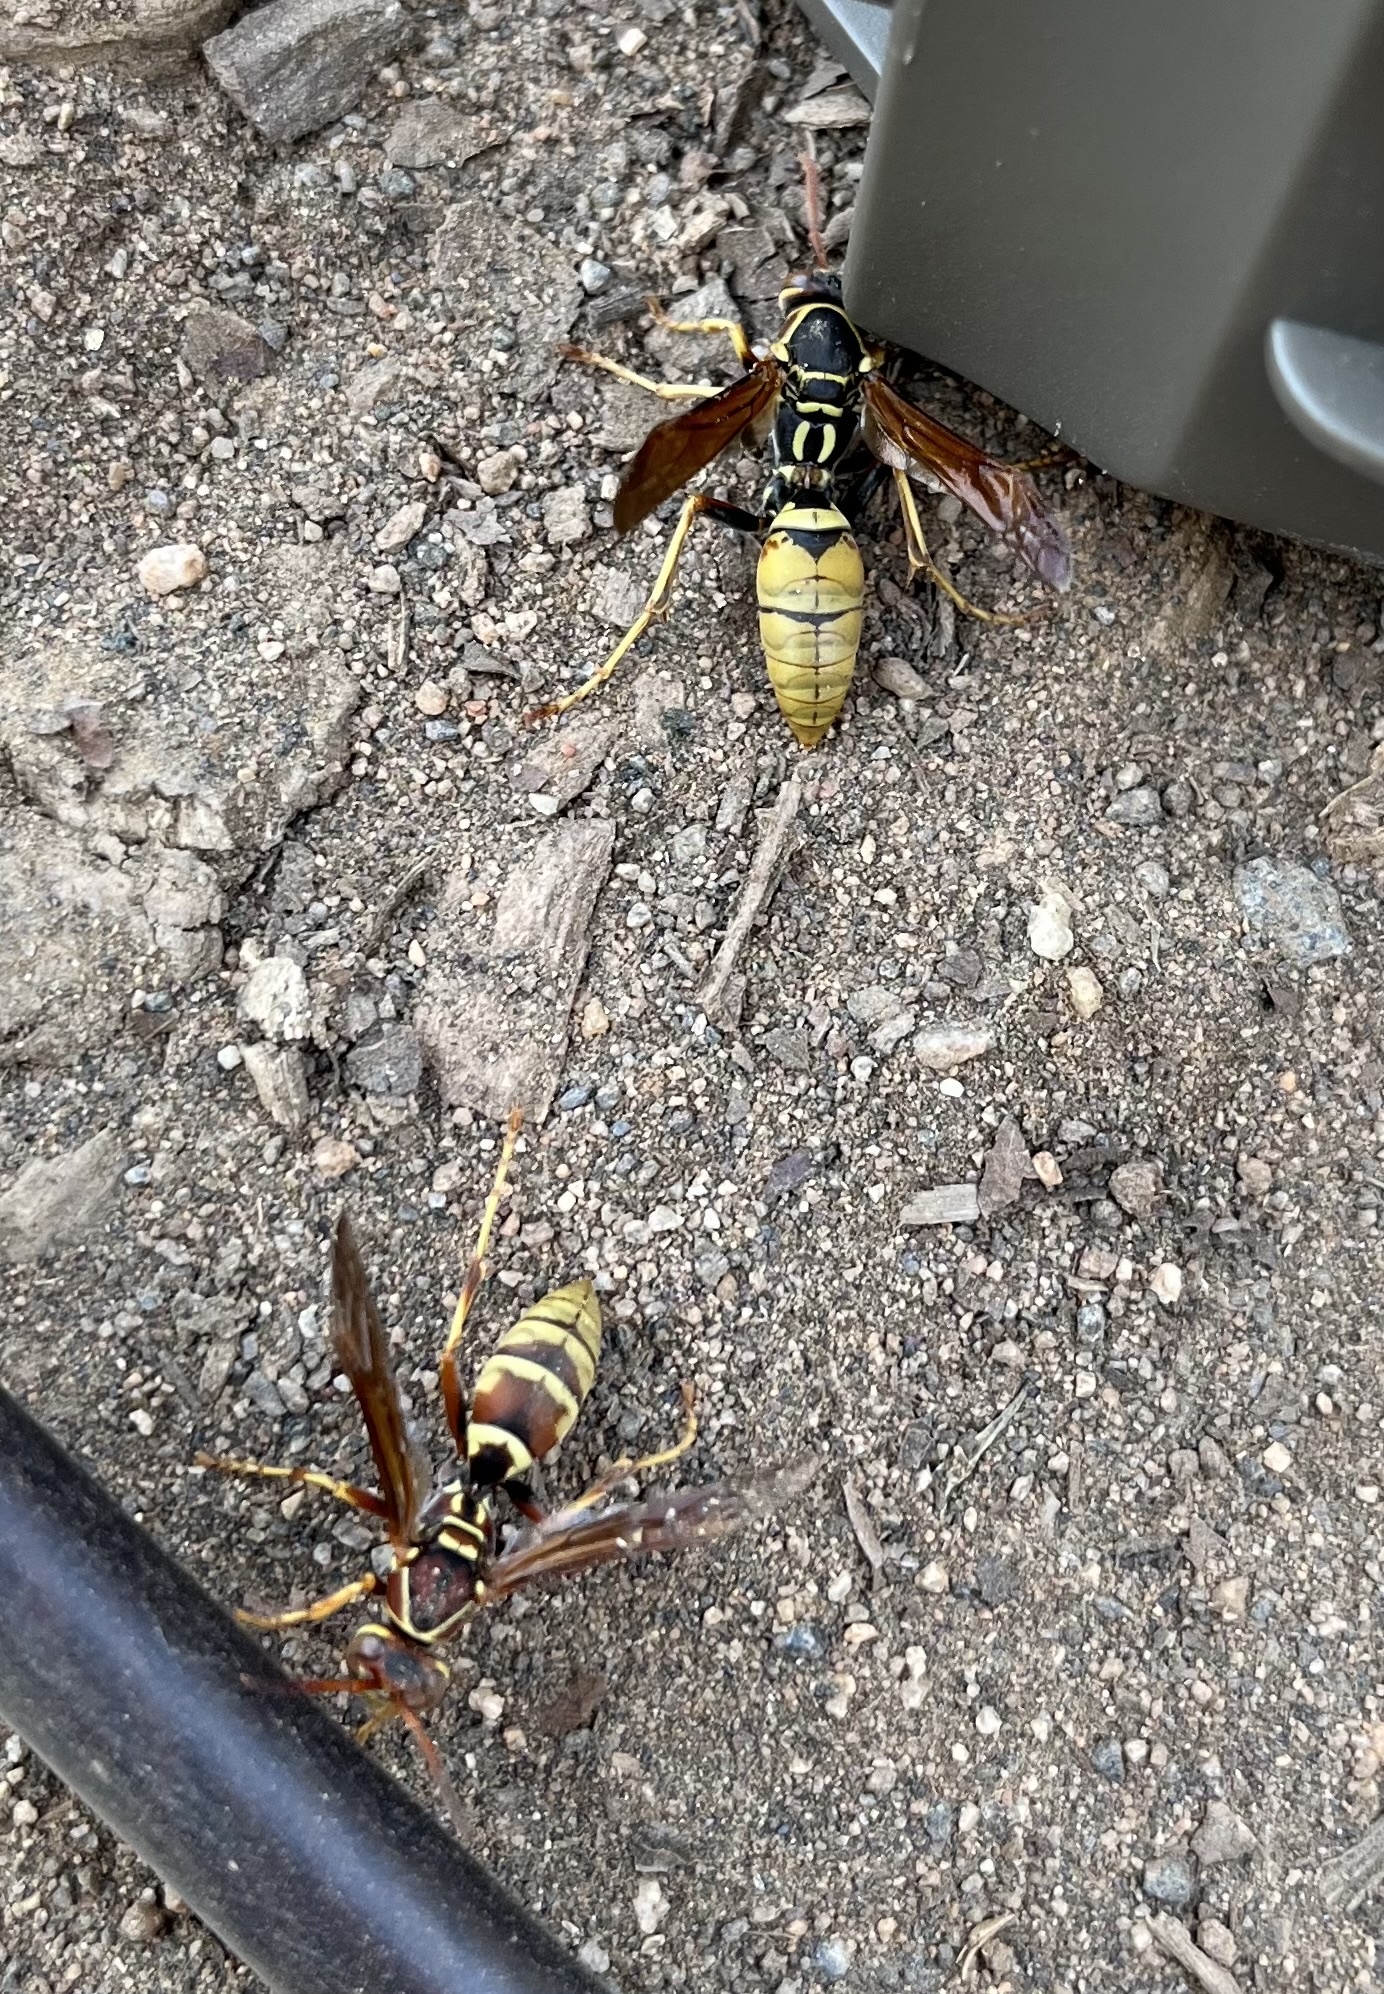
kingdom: Animalia
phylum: Arthropoda
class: Insecta
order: Hymenoptera
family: Eumenidae
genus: Polistes
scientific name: Polistes aurifer
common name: Paper wasp
